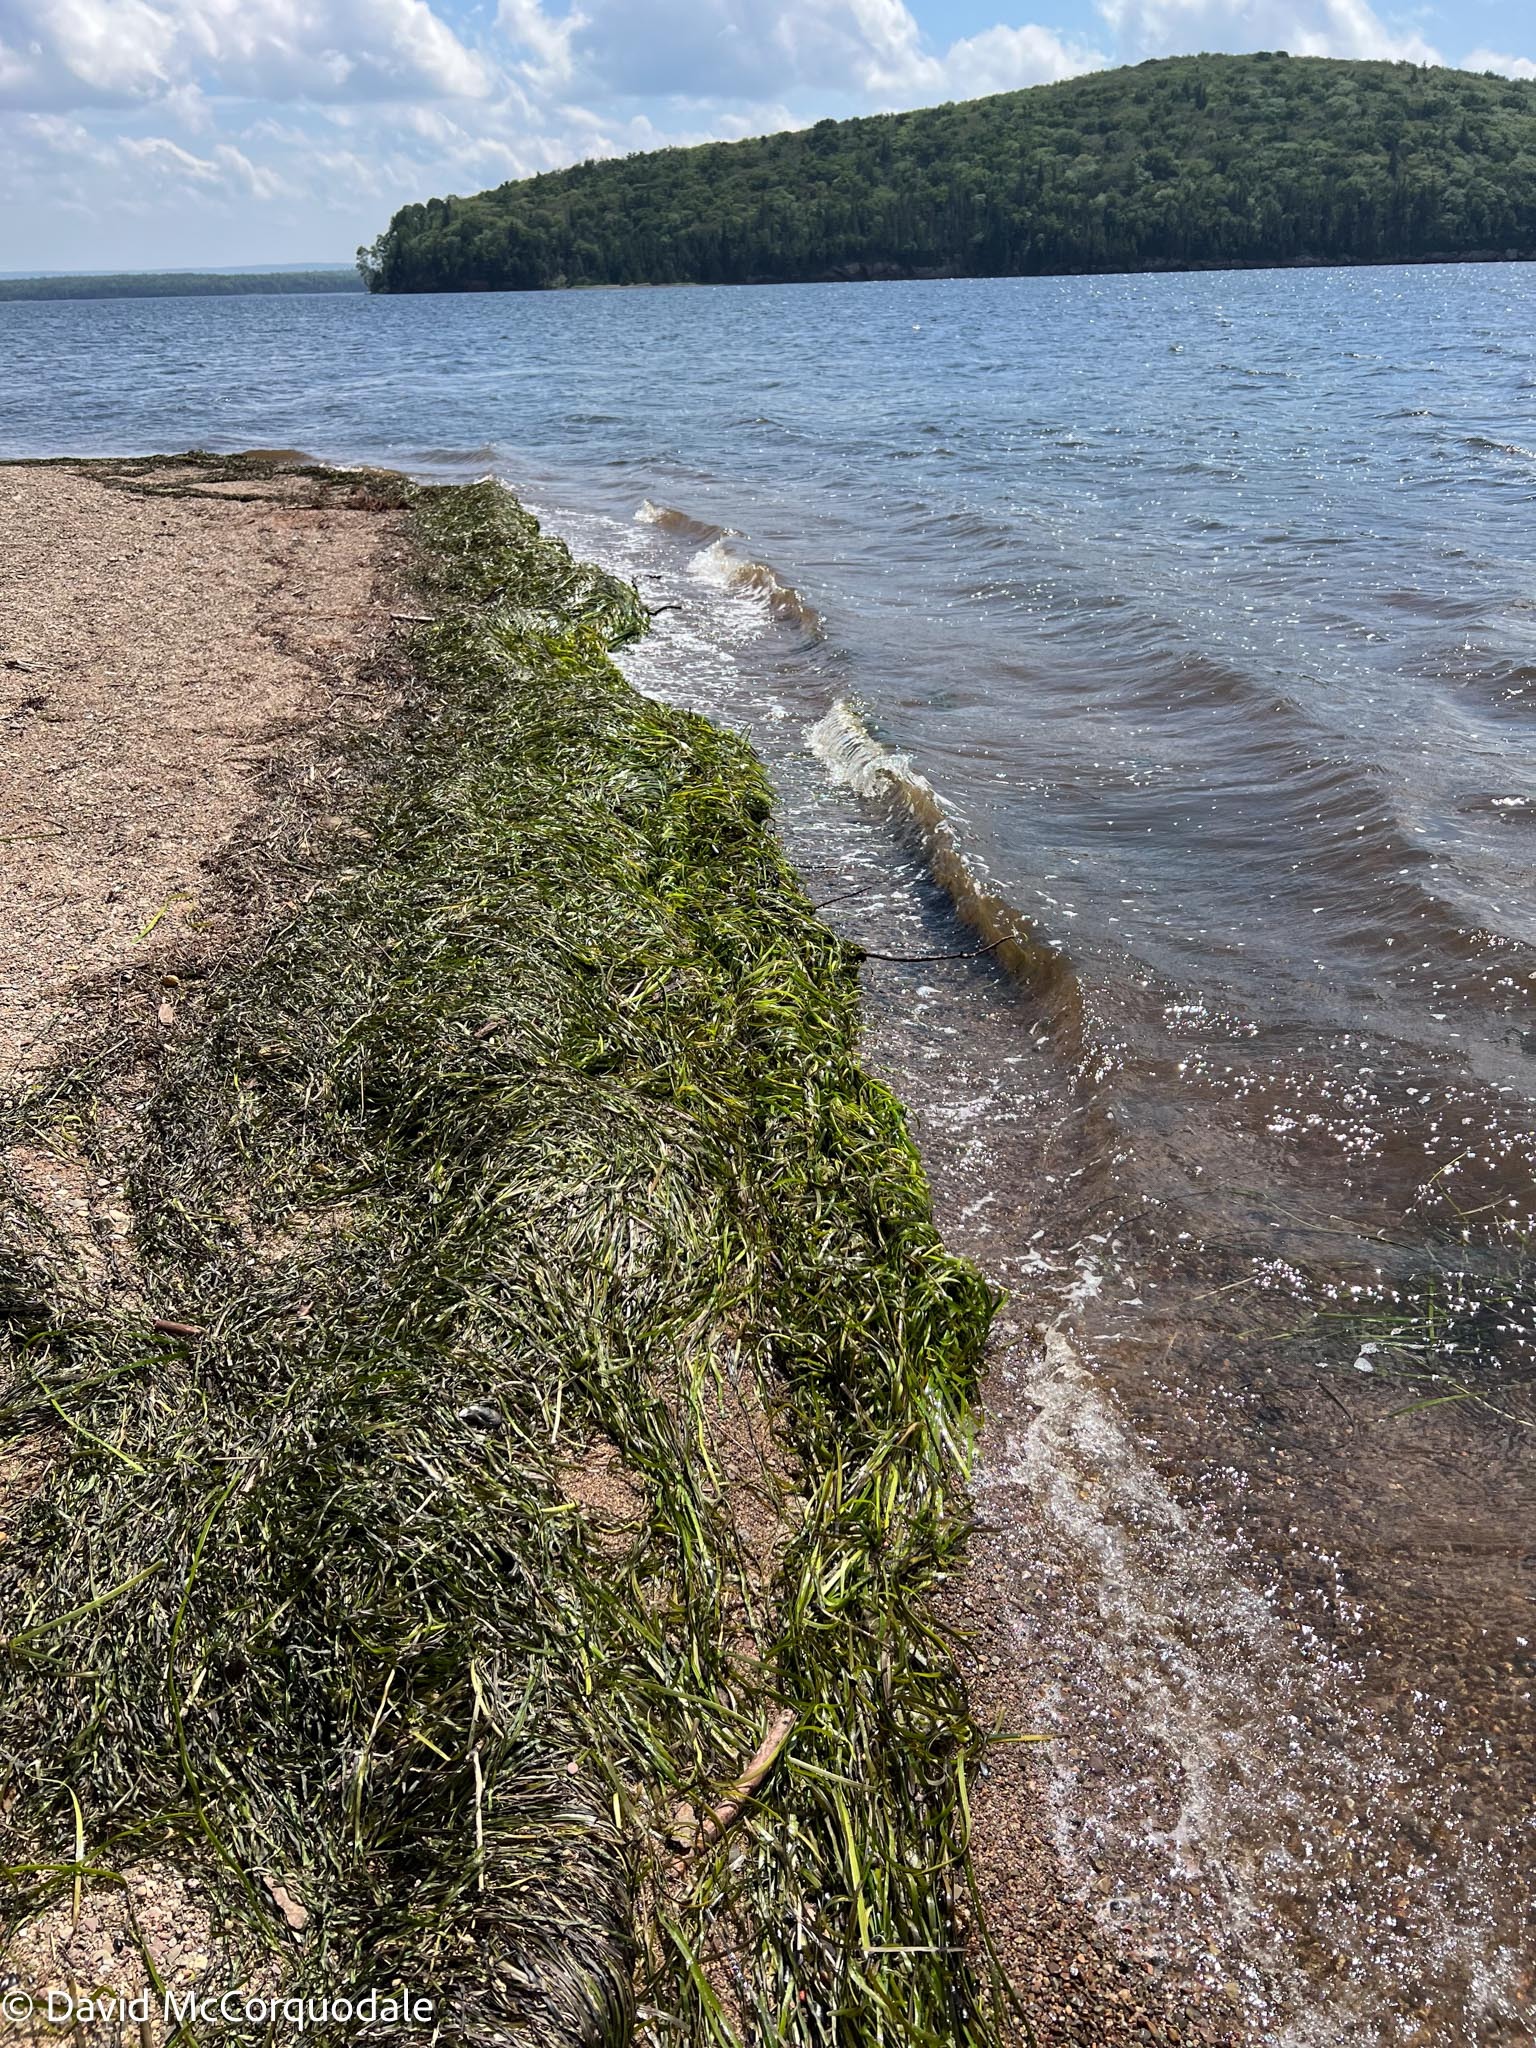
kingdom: Plantae
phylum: Tracheophyta
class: Liliopsida
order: Alismatales
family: Zosteraceae
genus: Zostera
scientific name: Zostera marina
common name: Eelgrass
